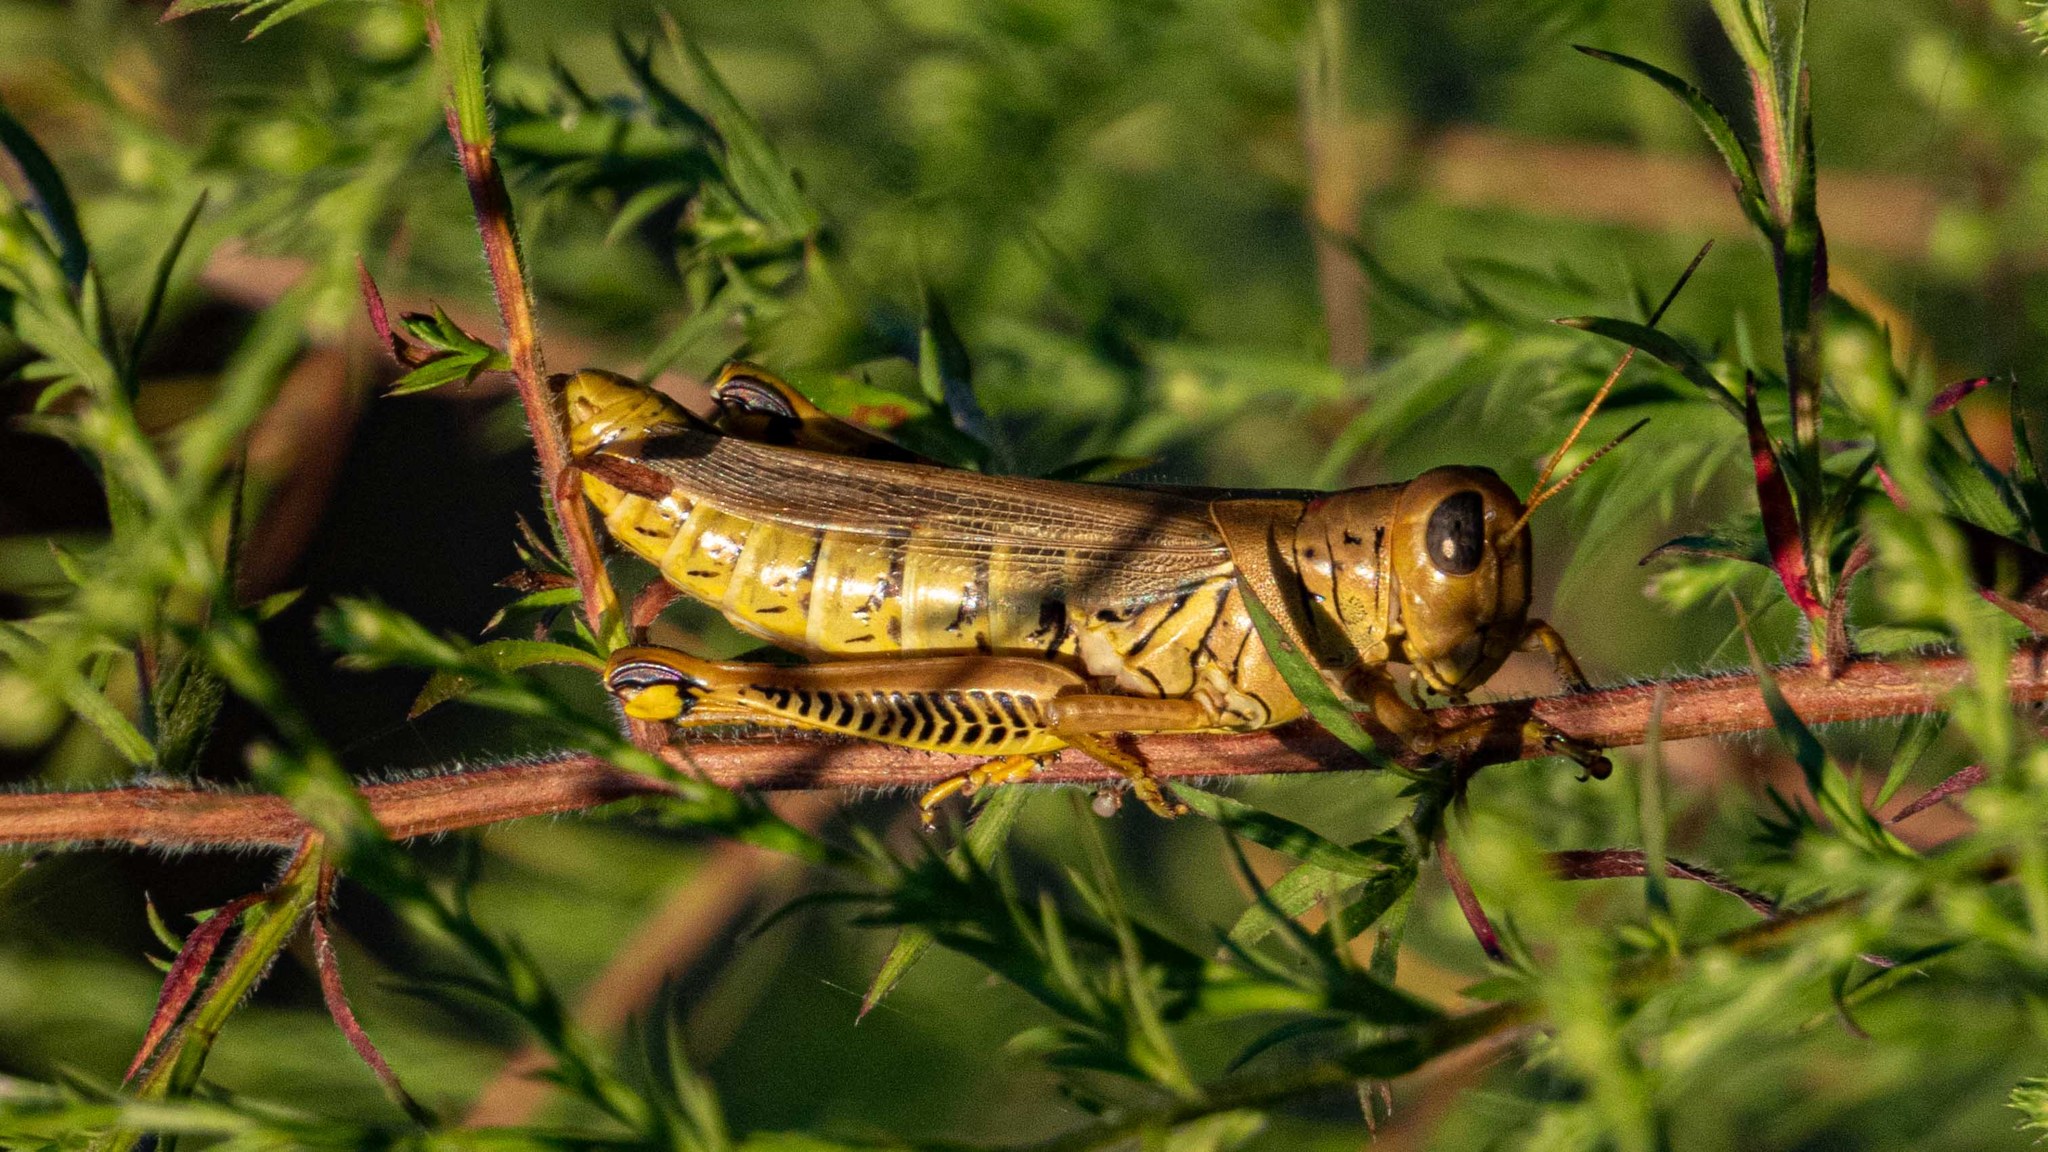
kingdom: Animalia
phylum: Arthropoda
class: Insecta
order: Orthoptera
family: Acrididae
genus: Melanoplus
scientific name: Melanoplus differentialis
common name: Differential grasshopper
